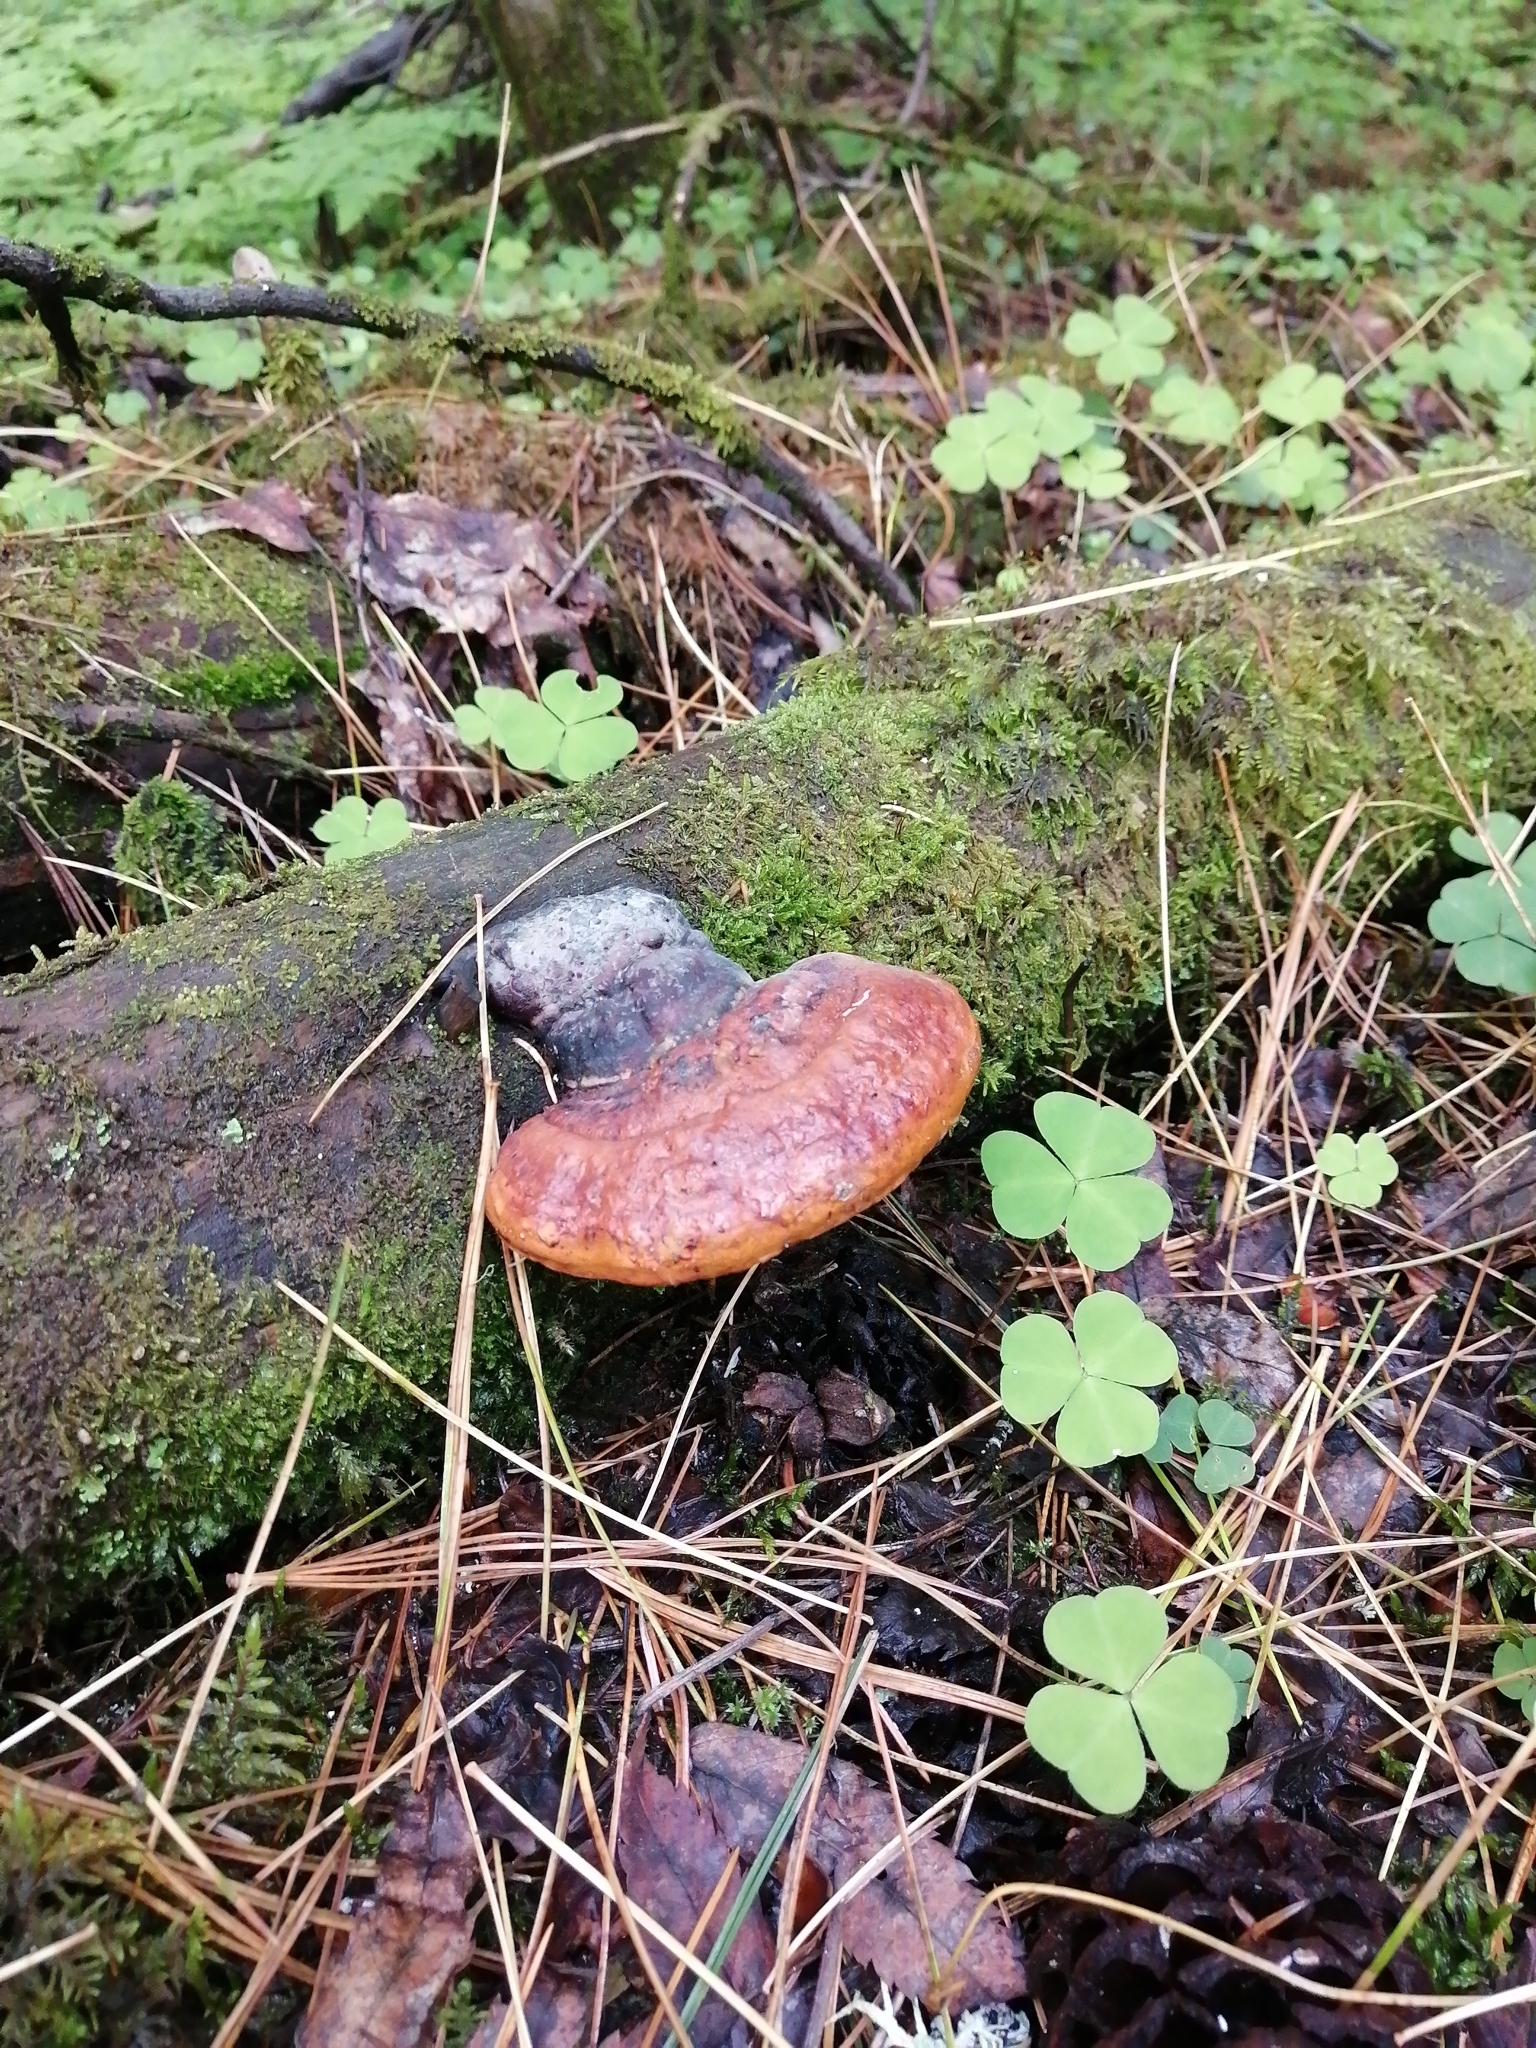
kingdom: Fungi
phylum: Basidiomycota
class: Agaricomycetes
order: Polyporales
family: Fomitopsidaceae
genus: Fomitopsis
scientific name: Fomitopsis pinicola
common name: Red-belted bracket
